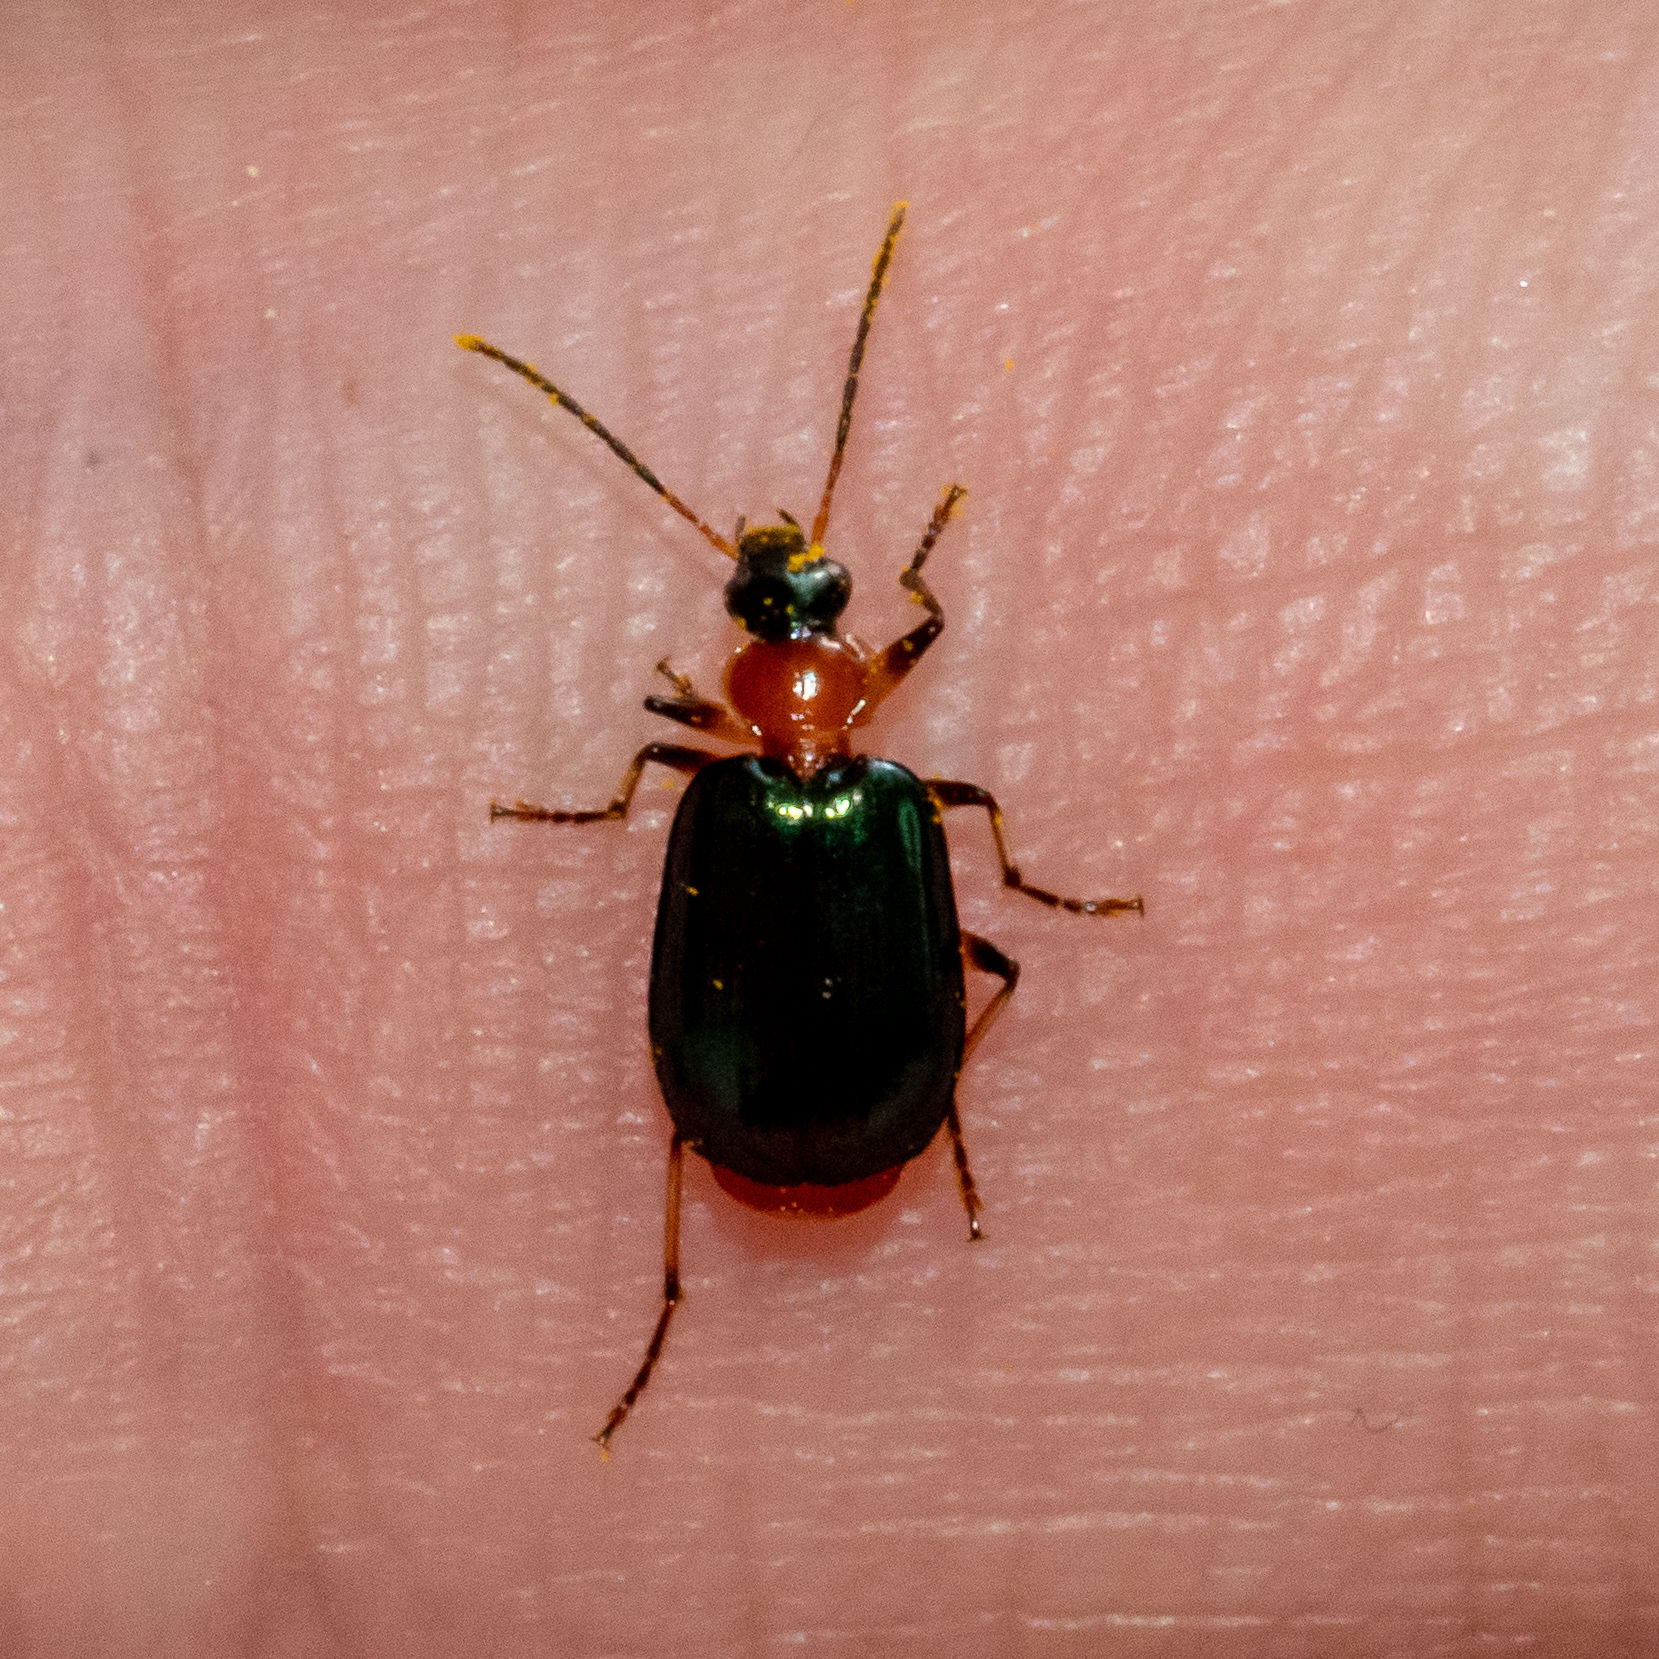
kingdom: Animalia
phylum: Arthropoda
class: Insecta
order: Coleoptera
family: Carabidae
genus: Lebia
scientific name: Lebia viridipennis
